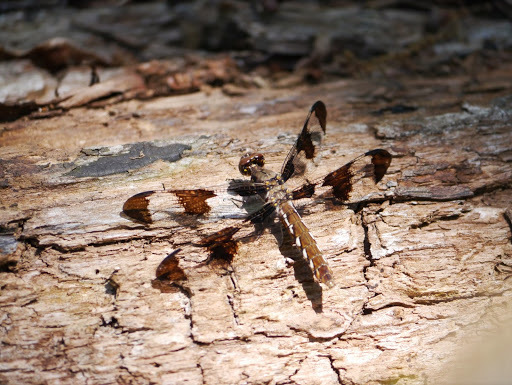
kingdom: Animalia
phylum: Arthropoda
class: Insecta
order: Odonata
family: Libellulidae
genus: Plathemis
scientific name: Plathemis lydia
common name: Common whitetail
